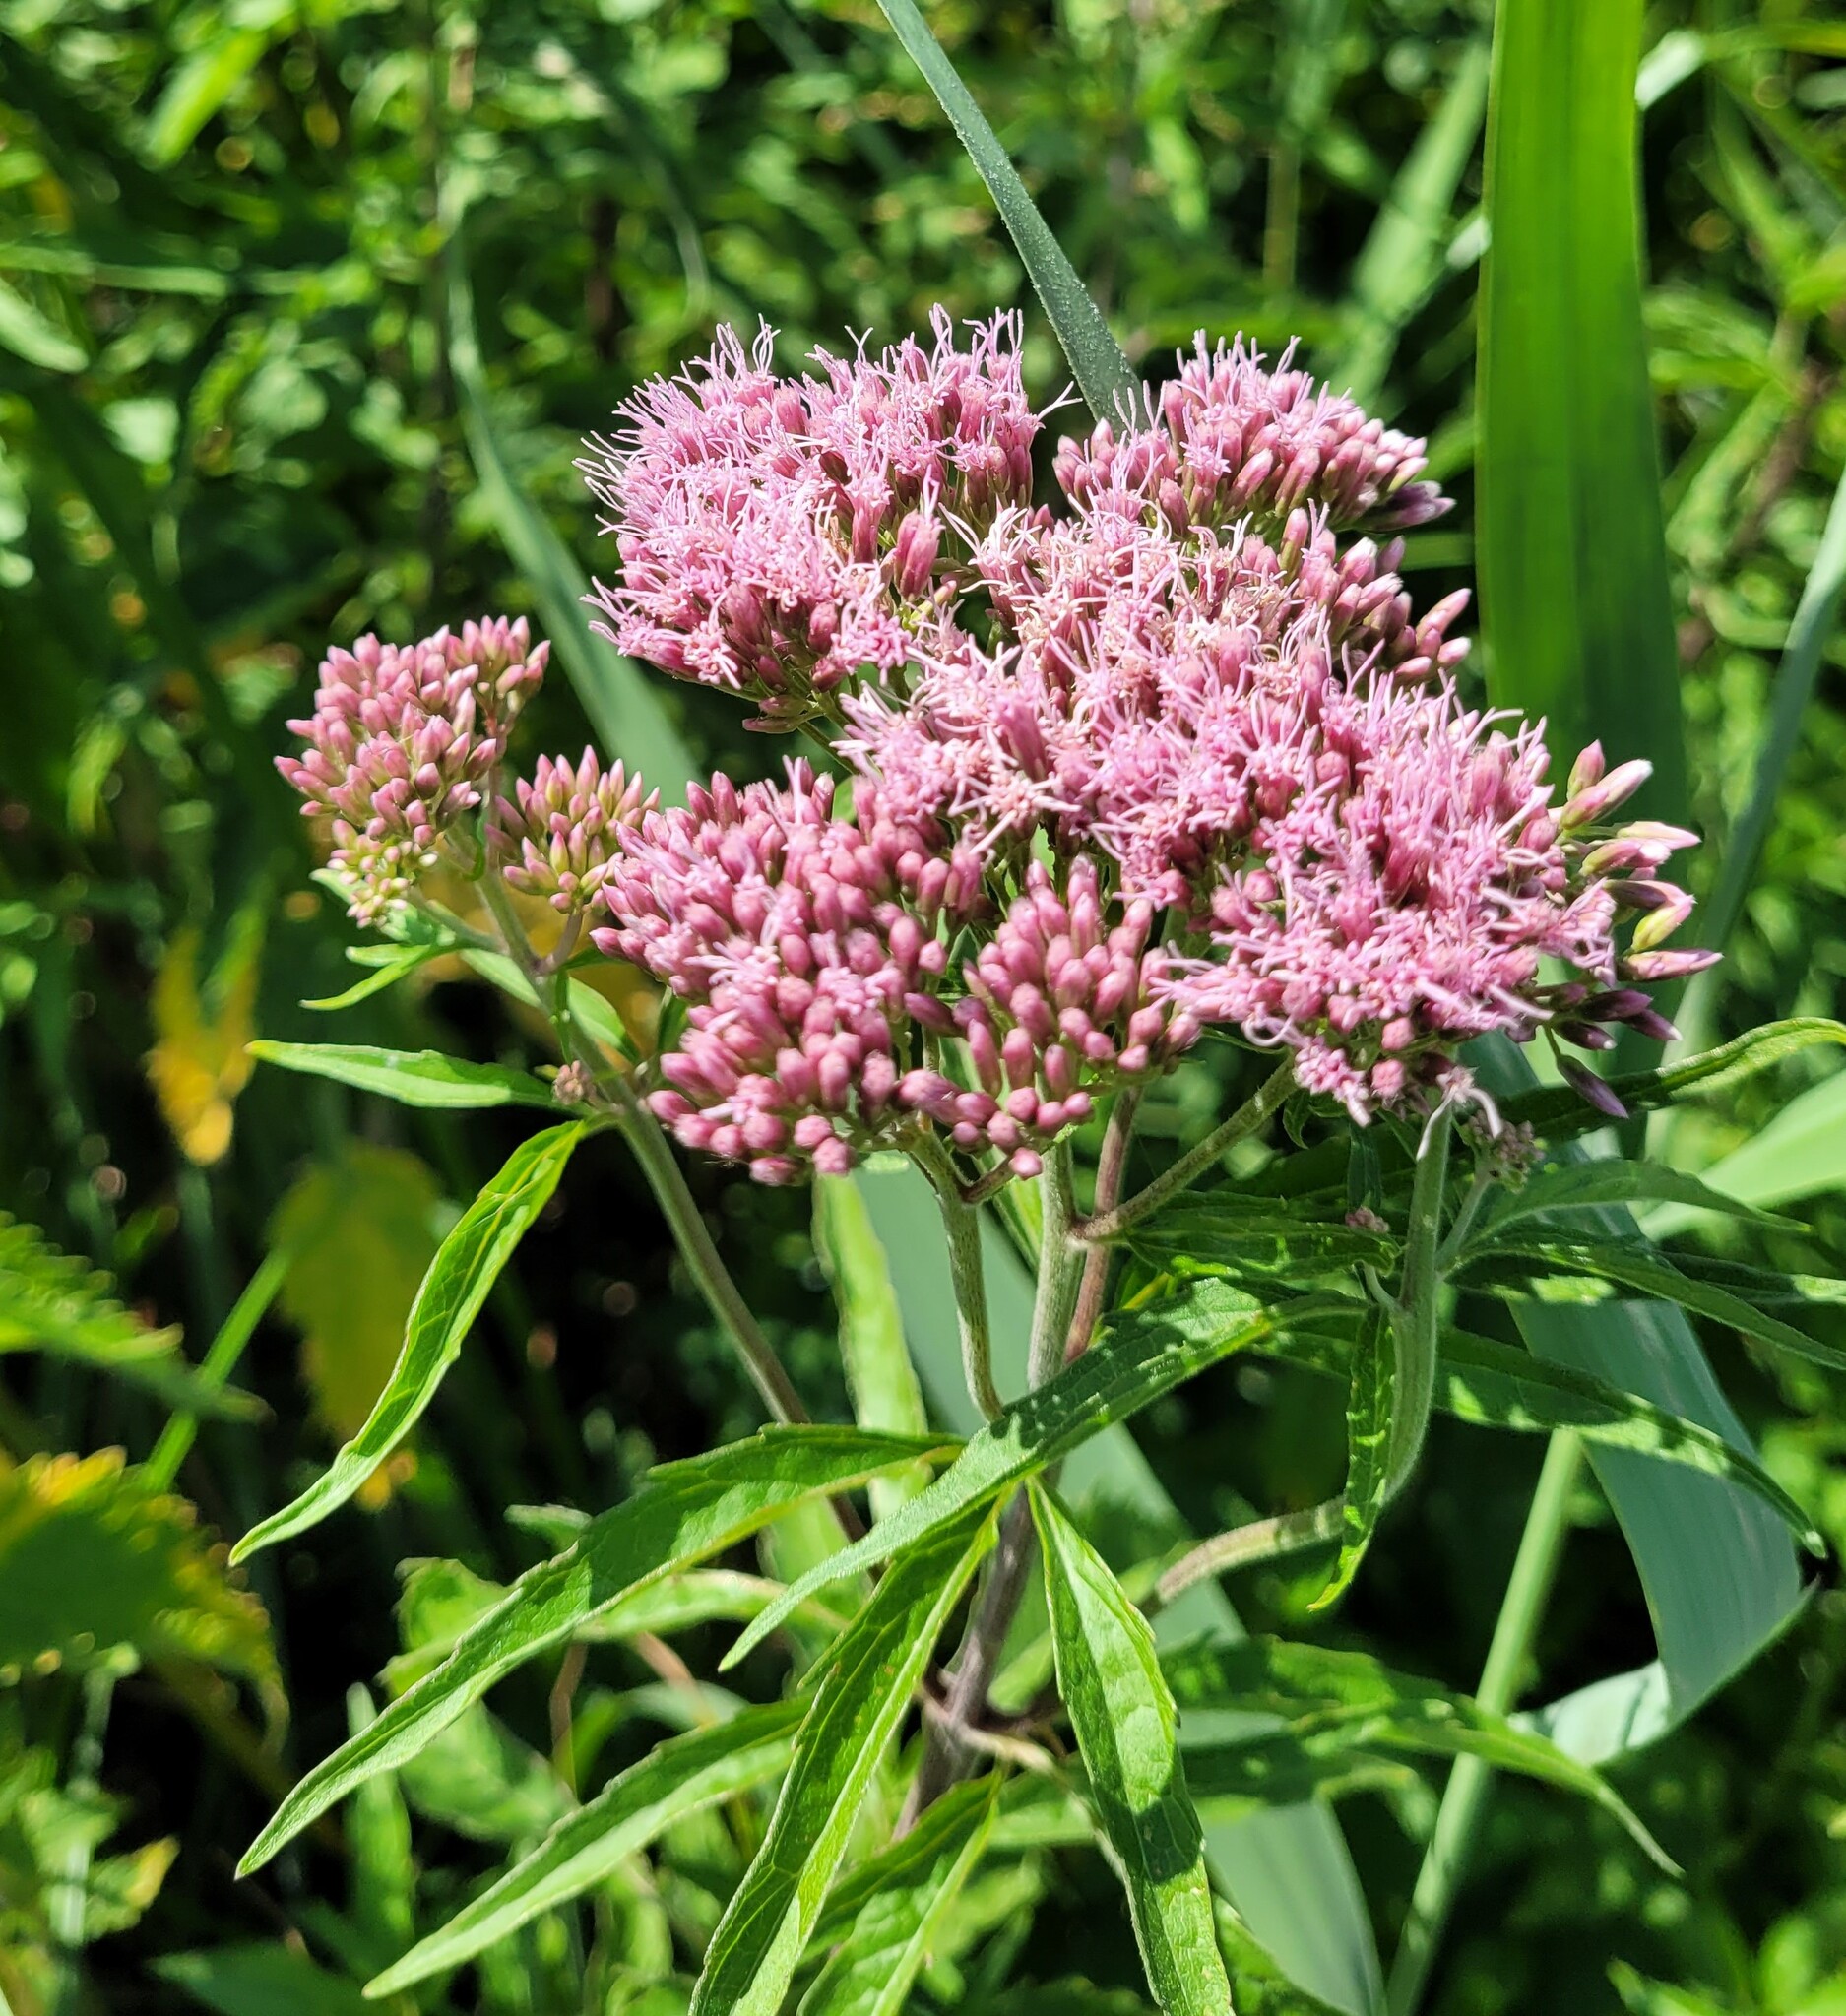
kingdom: Plantae
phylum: Tracheophyta
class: Magnoliopsida
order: Asterales
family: Asteraceae
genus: Eupatorium
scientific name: Eupatorium cannabinum
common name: Hemp-agrimony
